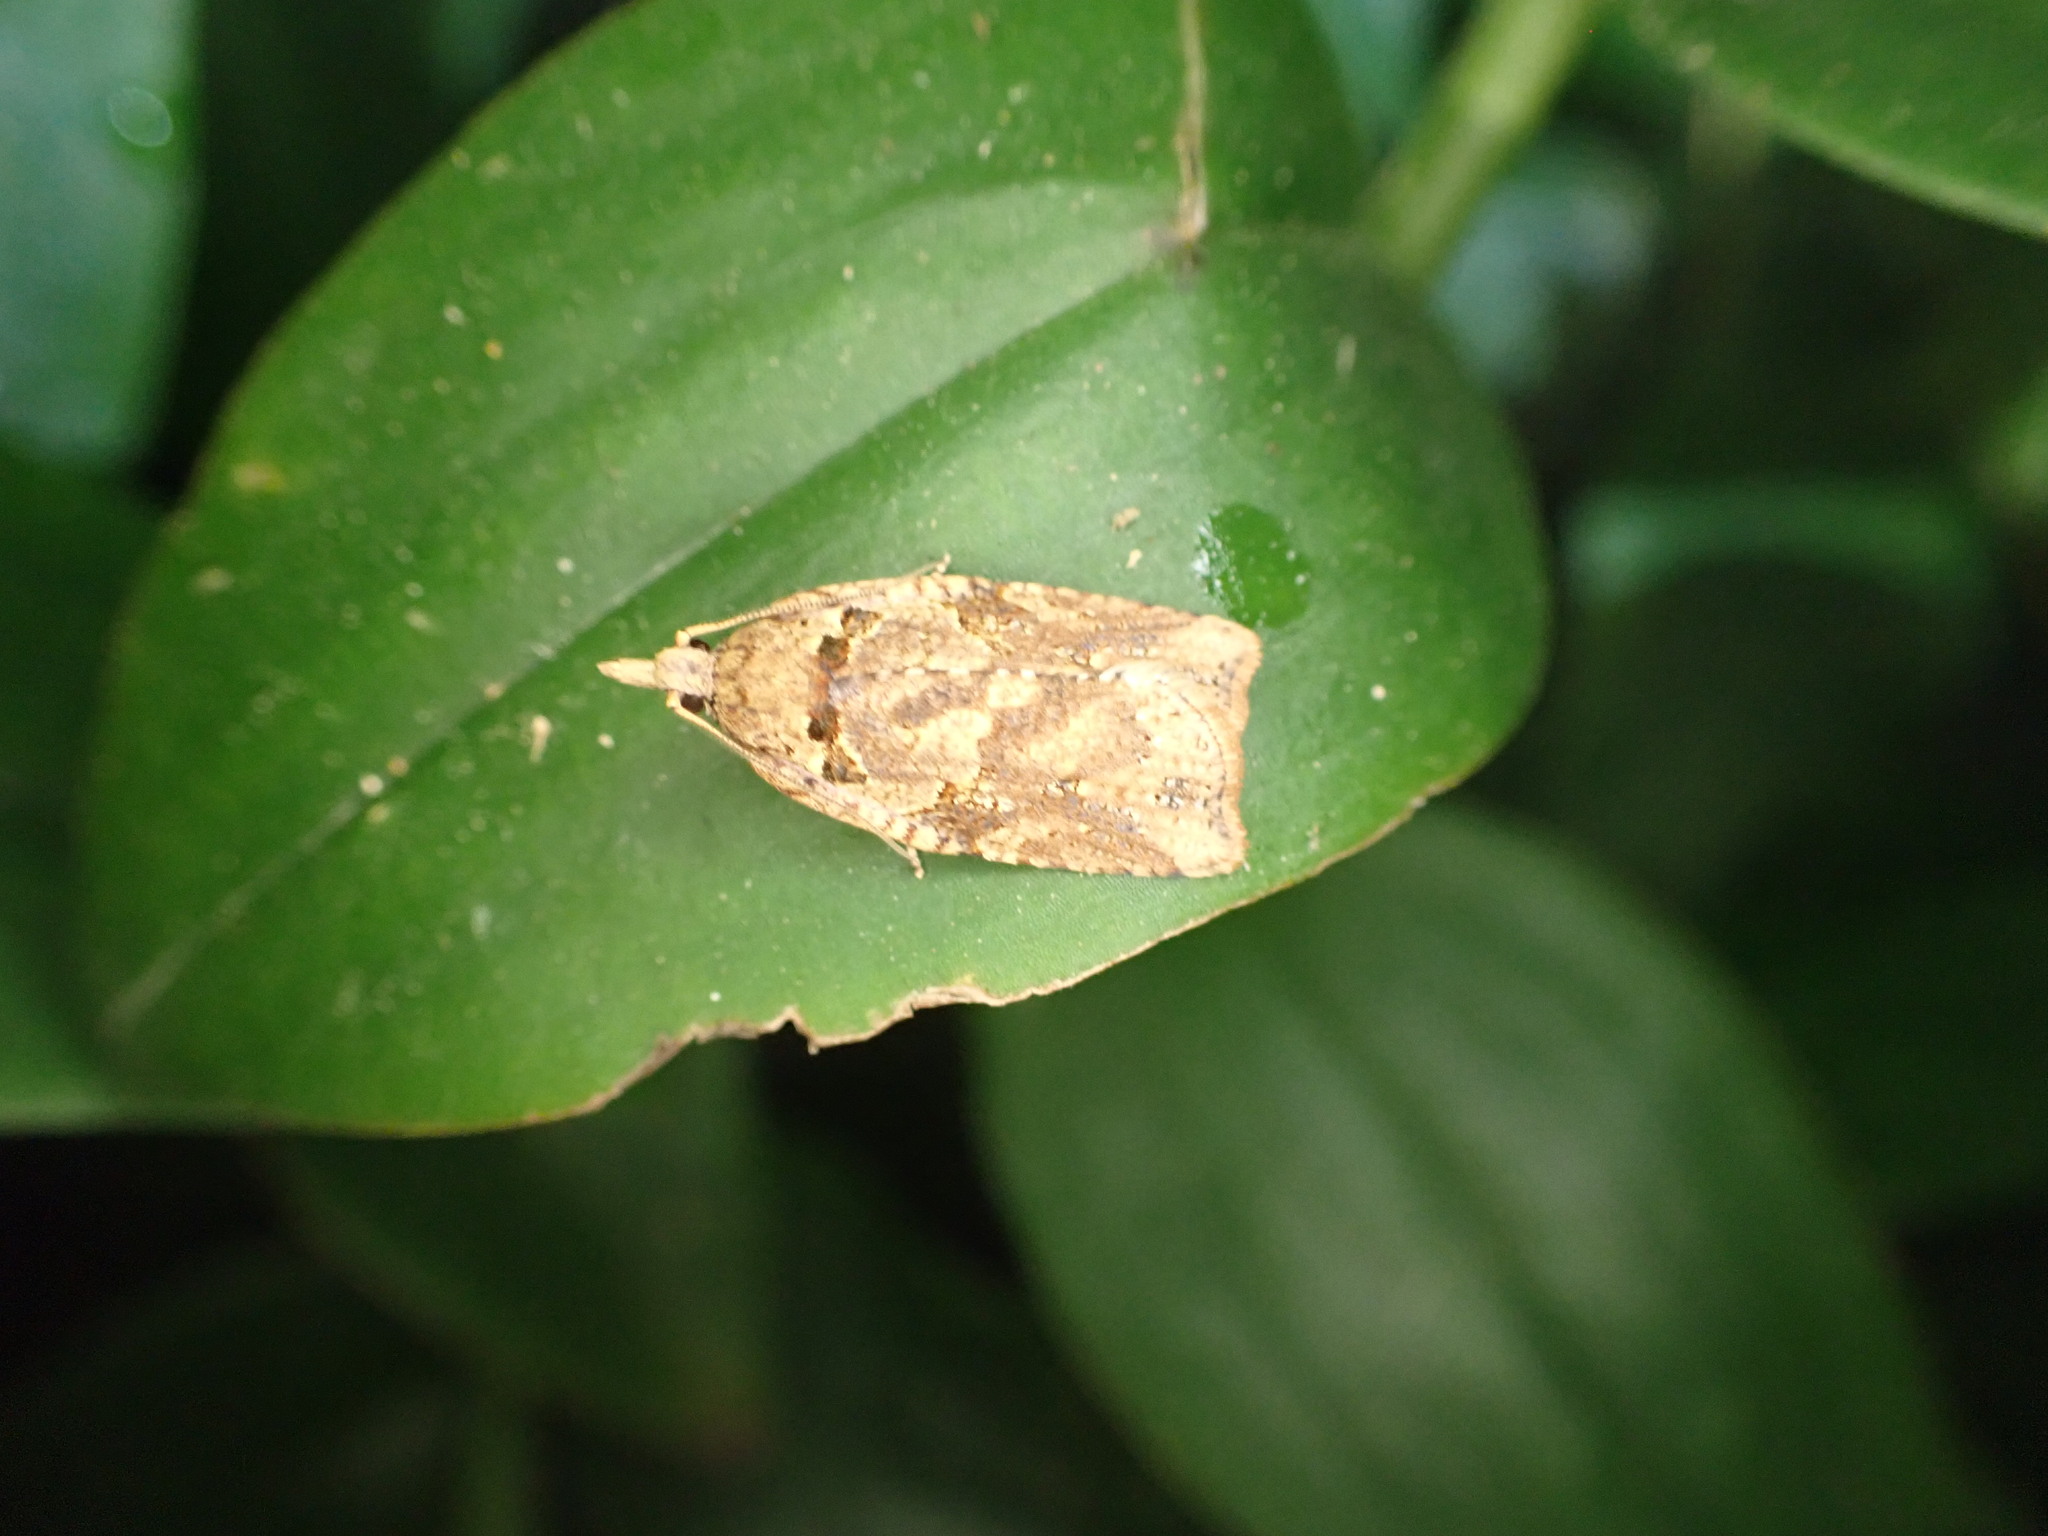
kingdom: Animalia
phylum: Arthropoda
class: Insecta
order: Lepidoptera
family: Tortricidae
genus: Ctenopseustis
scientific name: Ctenopseustis obliquana
